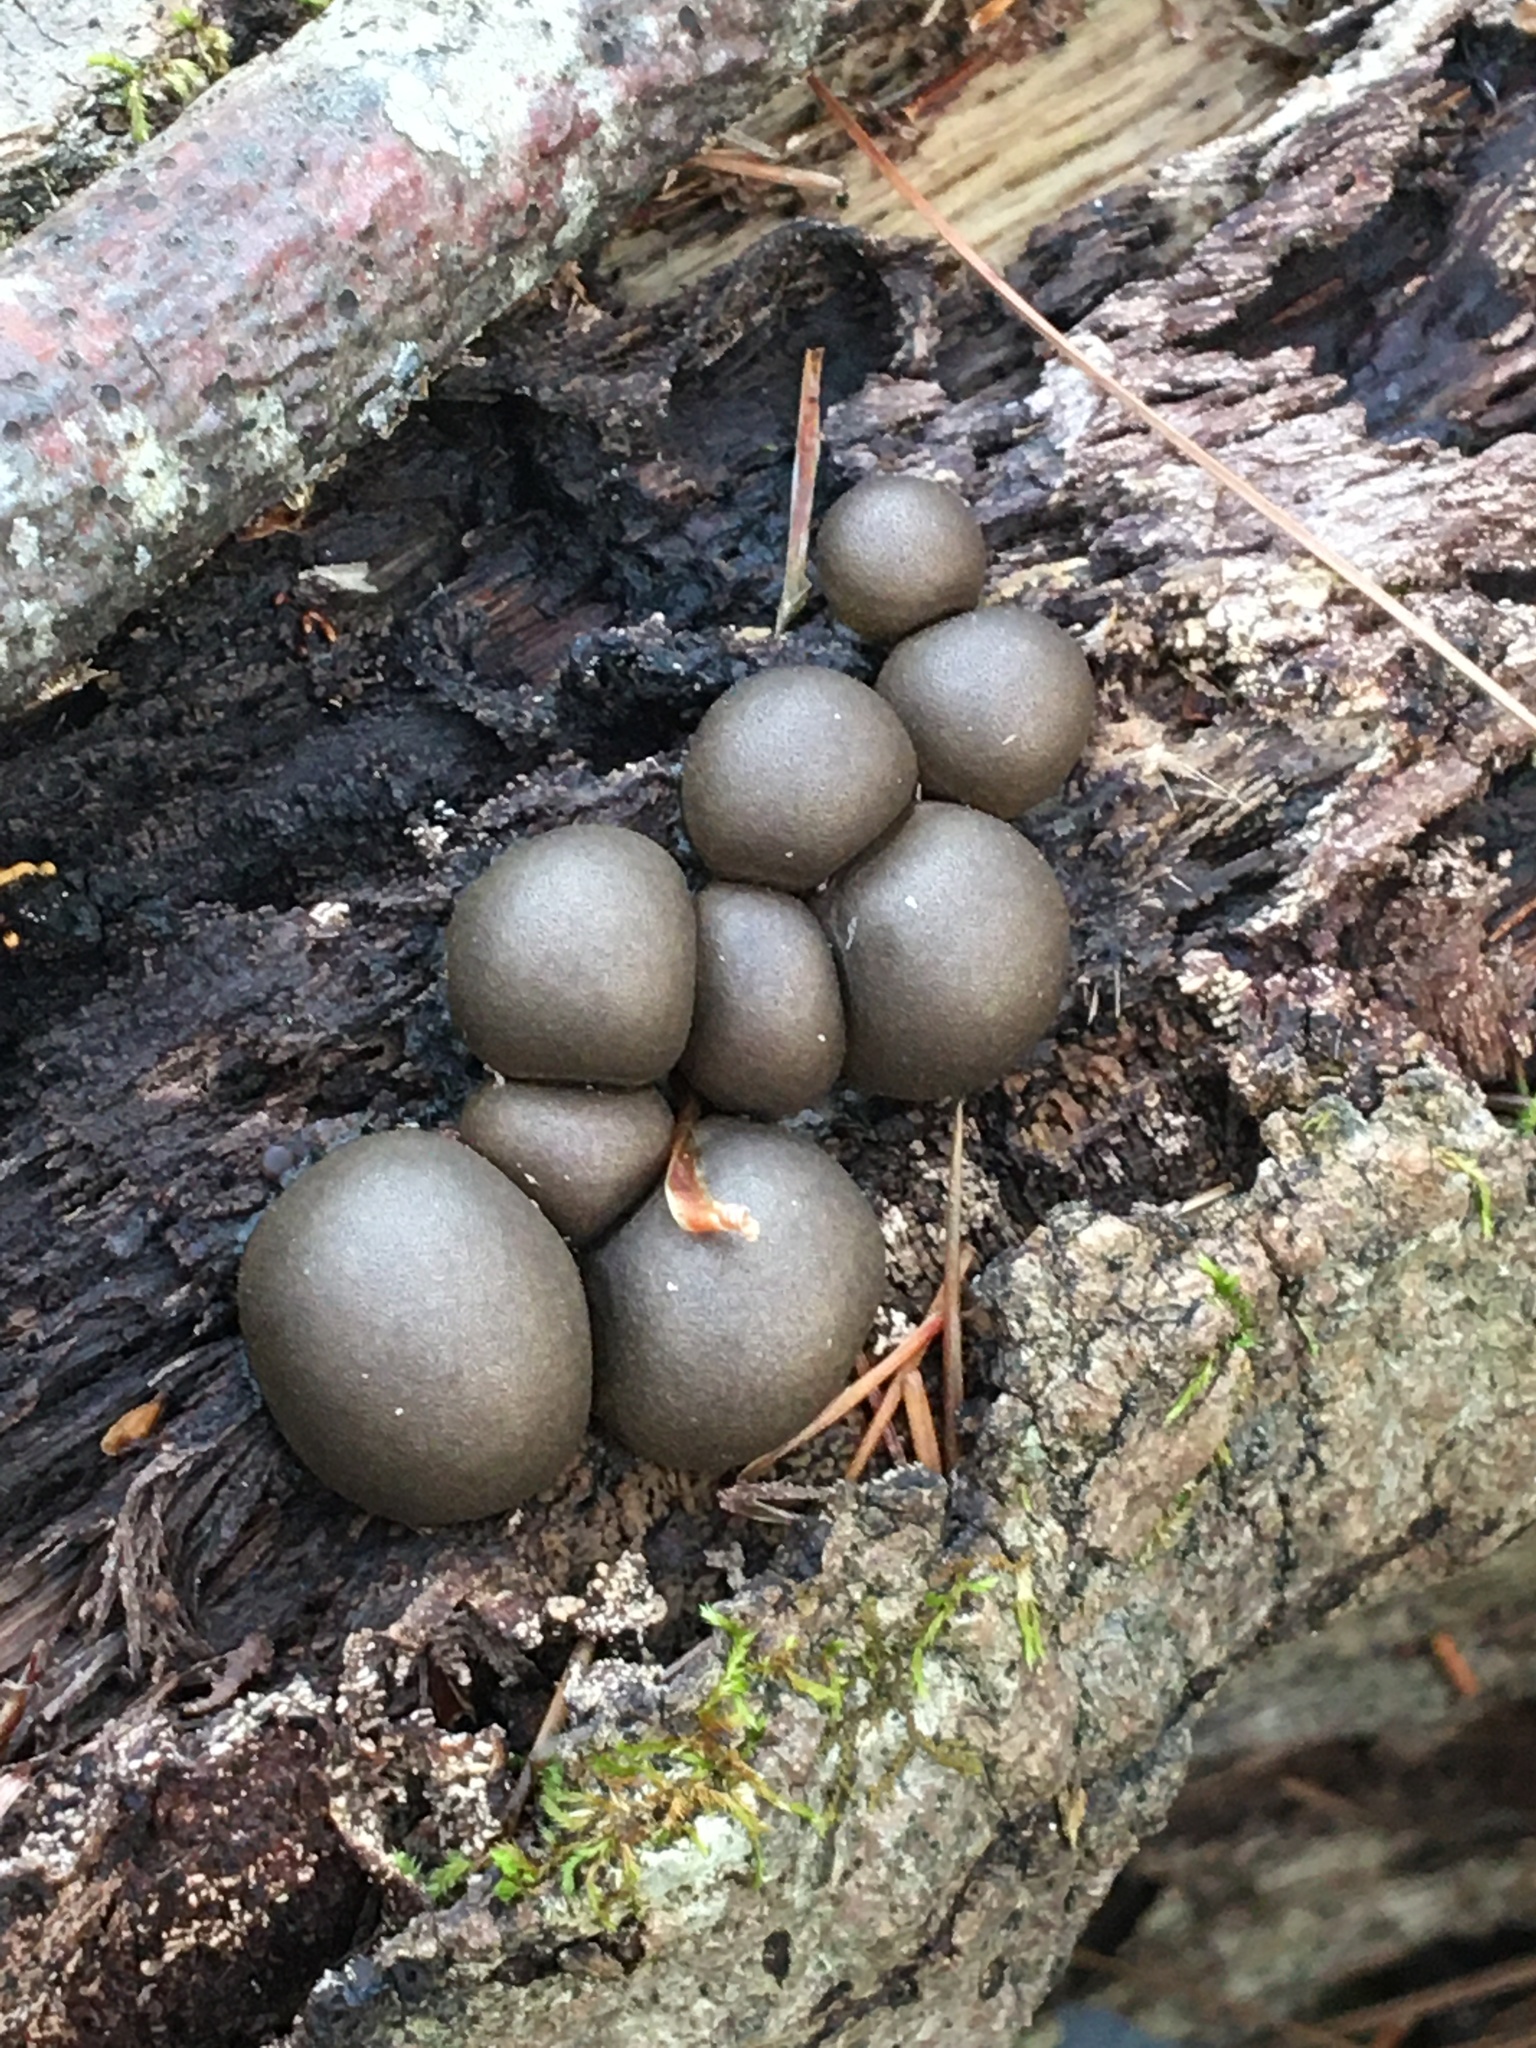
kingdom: Protozoa
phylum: Mycetozoa
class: Myxomycetes
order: Cribrariales
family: Tubiferaceae
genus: Lycogala
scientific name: Lycogala
